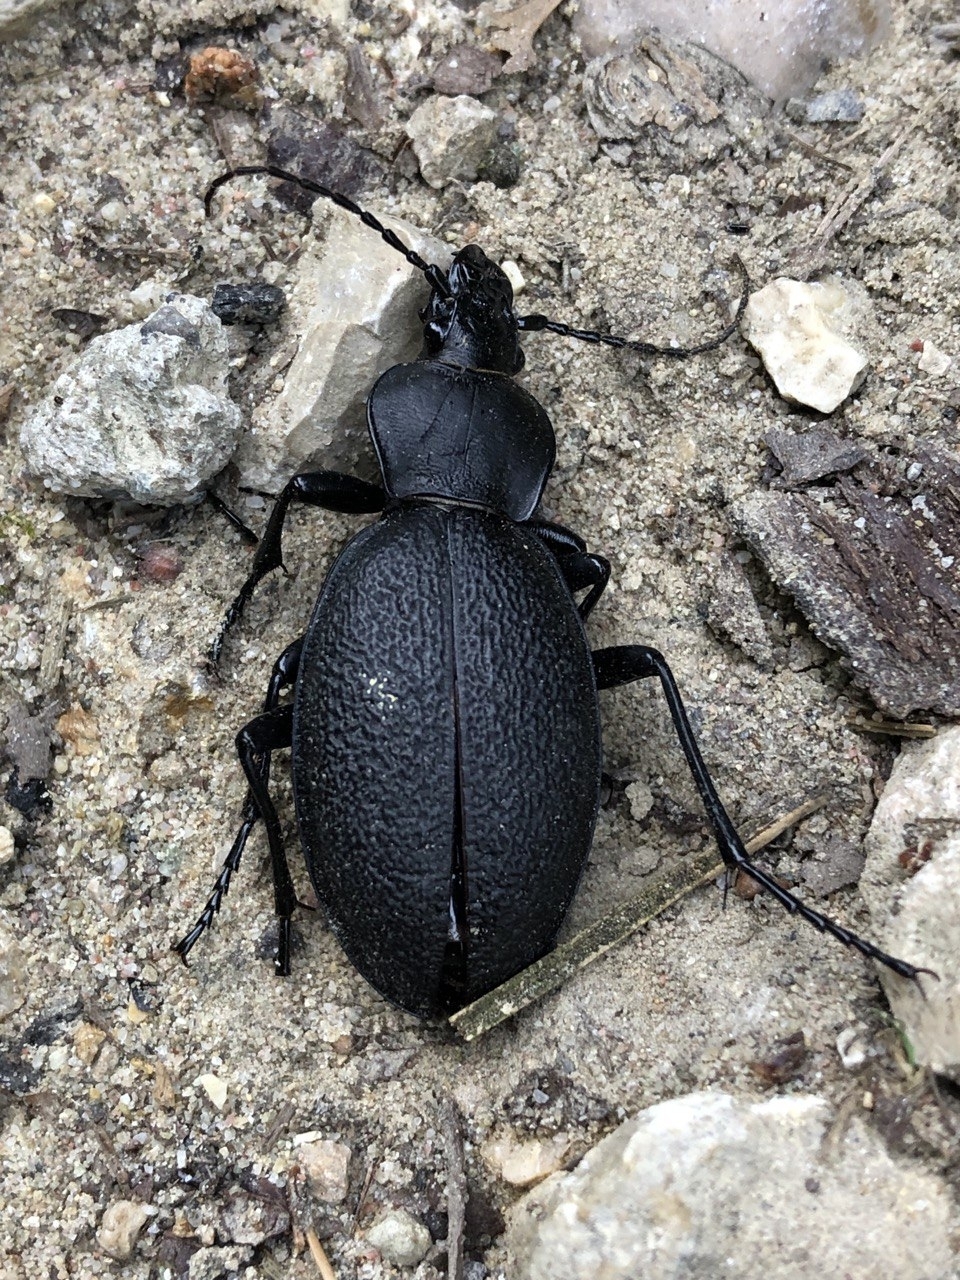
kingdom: Animalia
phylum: Arthropoda
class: Insecta
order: Coleoptera
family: Carabidae
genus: Carabus
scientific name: Carabus coriaceus
